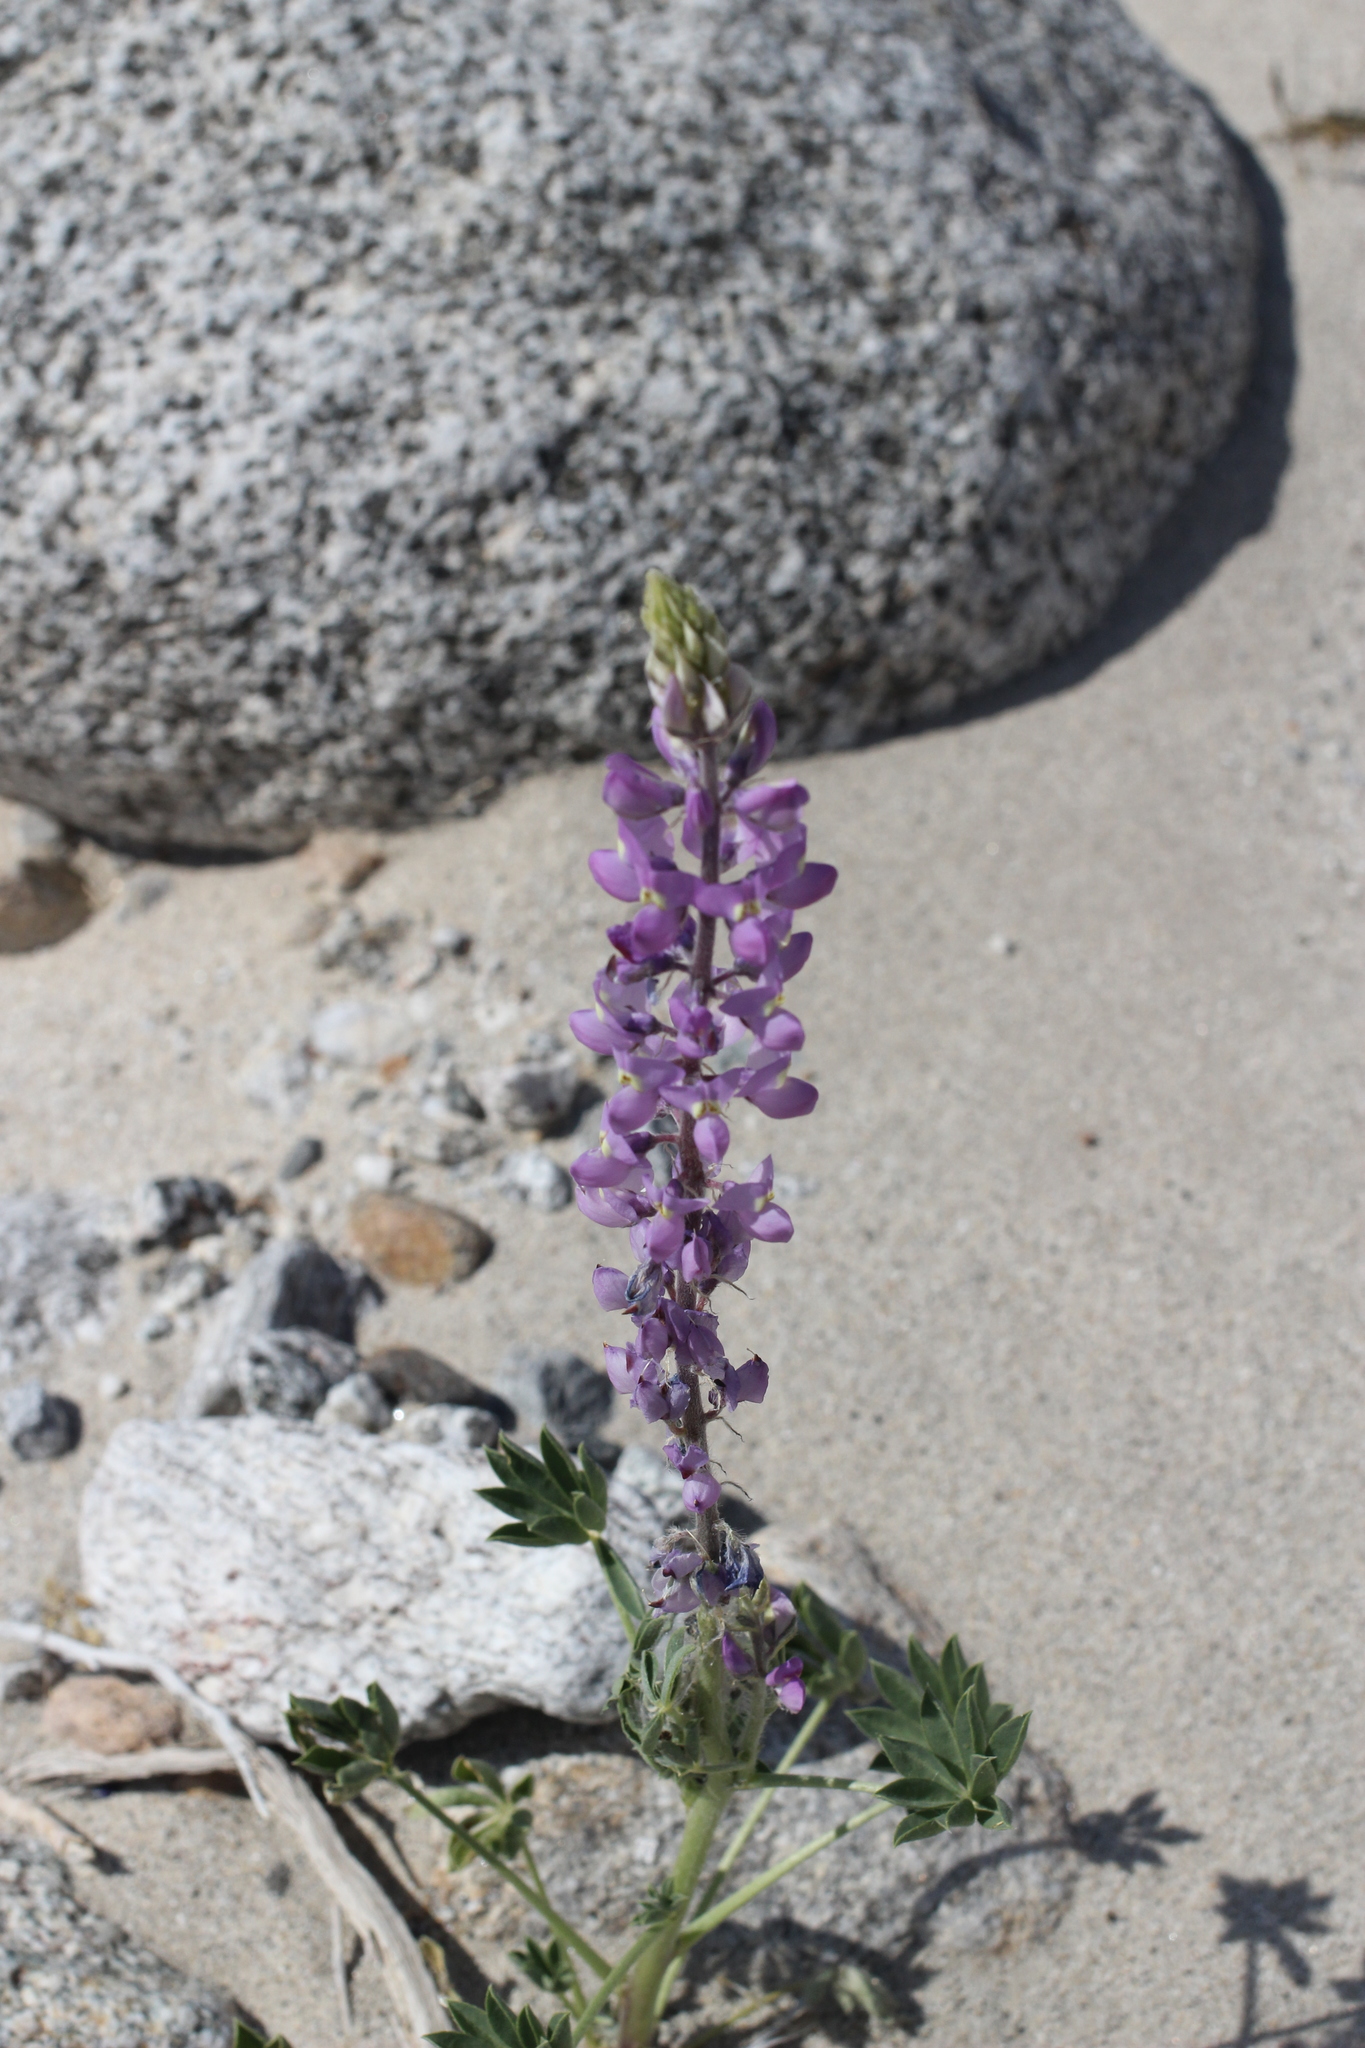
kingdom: Plantae
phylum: Tracheophyta
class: Magnoliopsida
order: Fabales
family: Fabaceae
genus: Lupinus
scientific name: Lupinus arizonicus
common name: Arizona lupine
